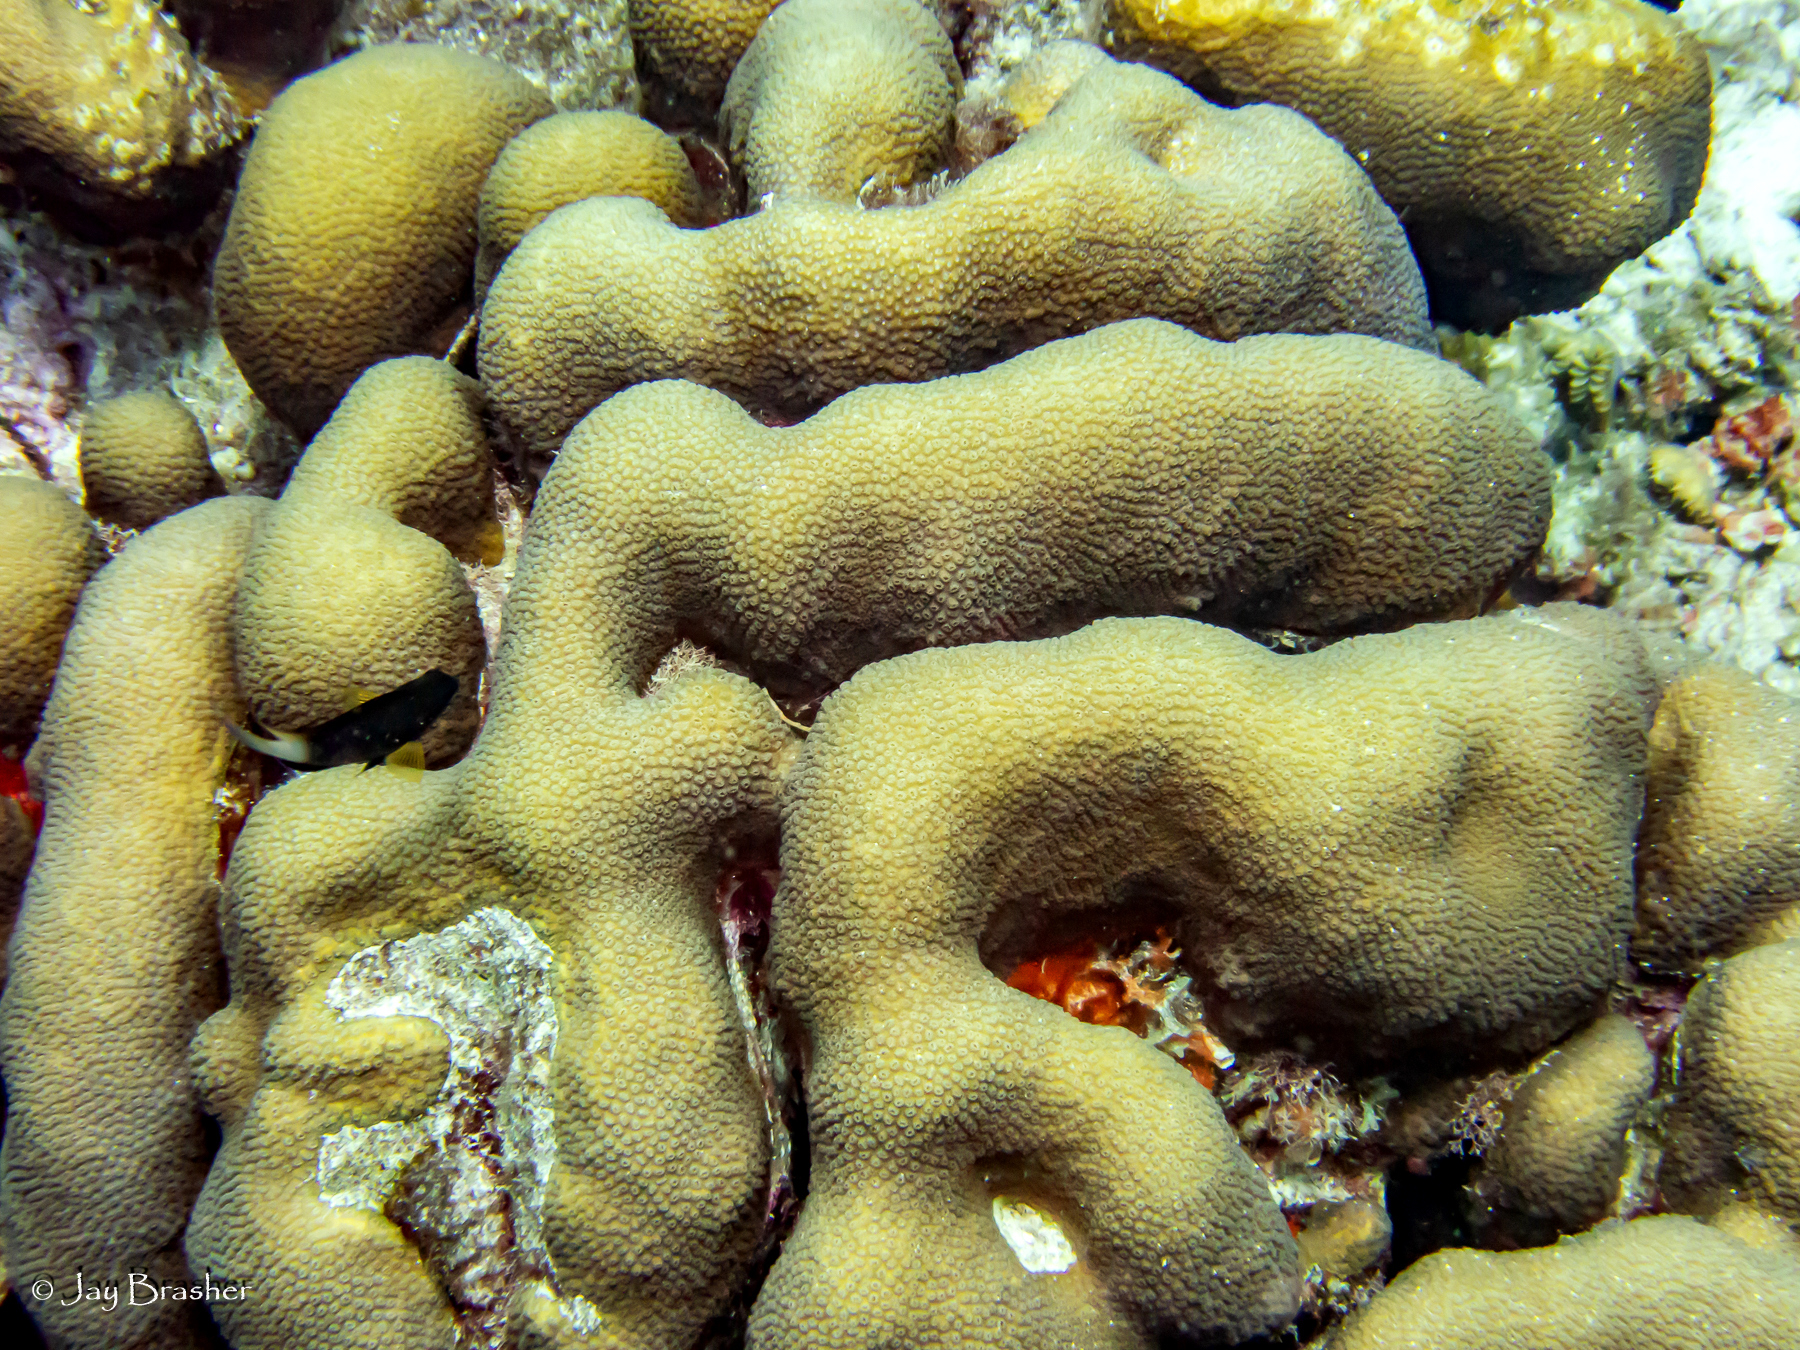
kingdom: Animalia
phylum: Chordata
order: Perciformes
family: Pomacentridae
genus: Stegastes
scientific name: Stegastes partitus
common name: Bicolor damselfish
